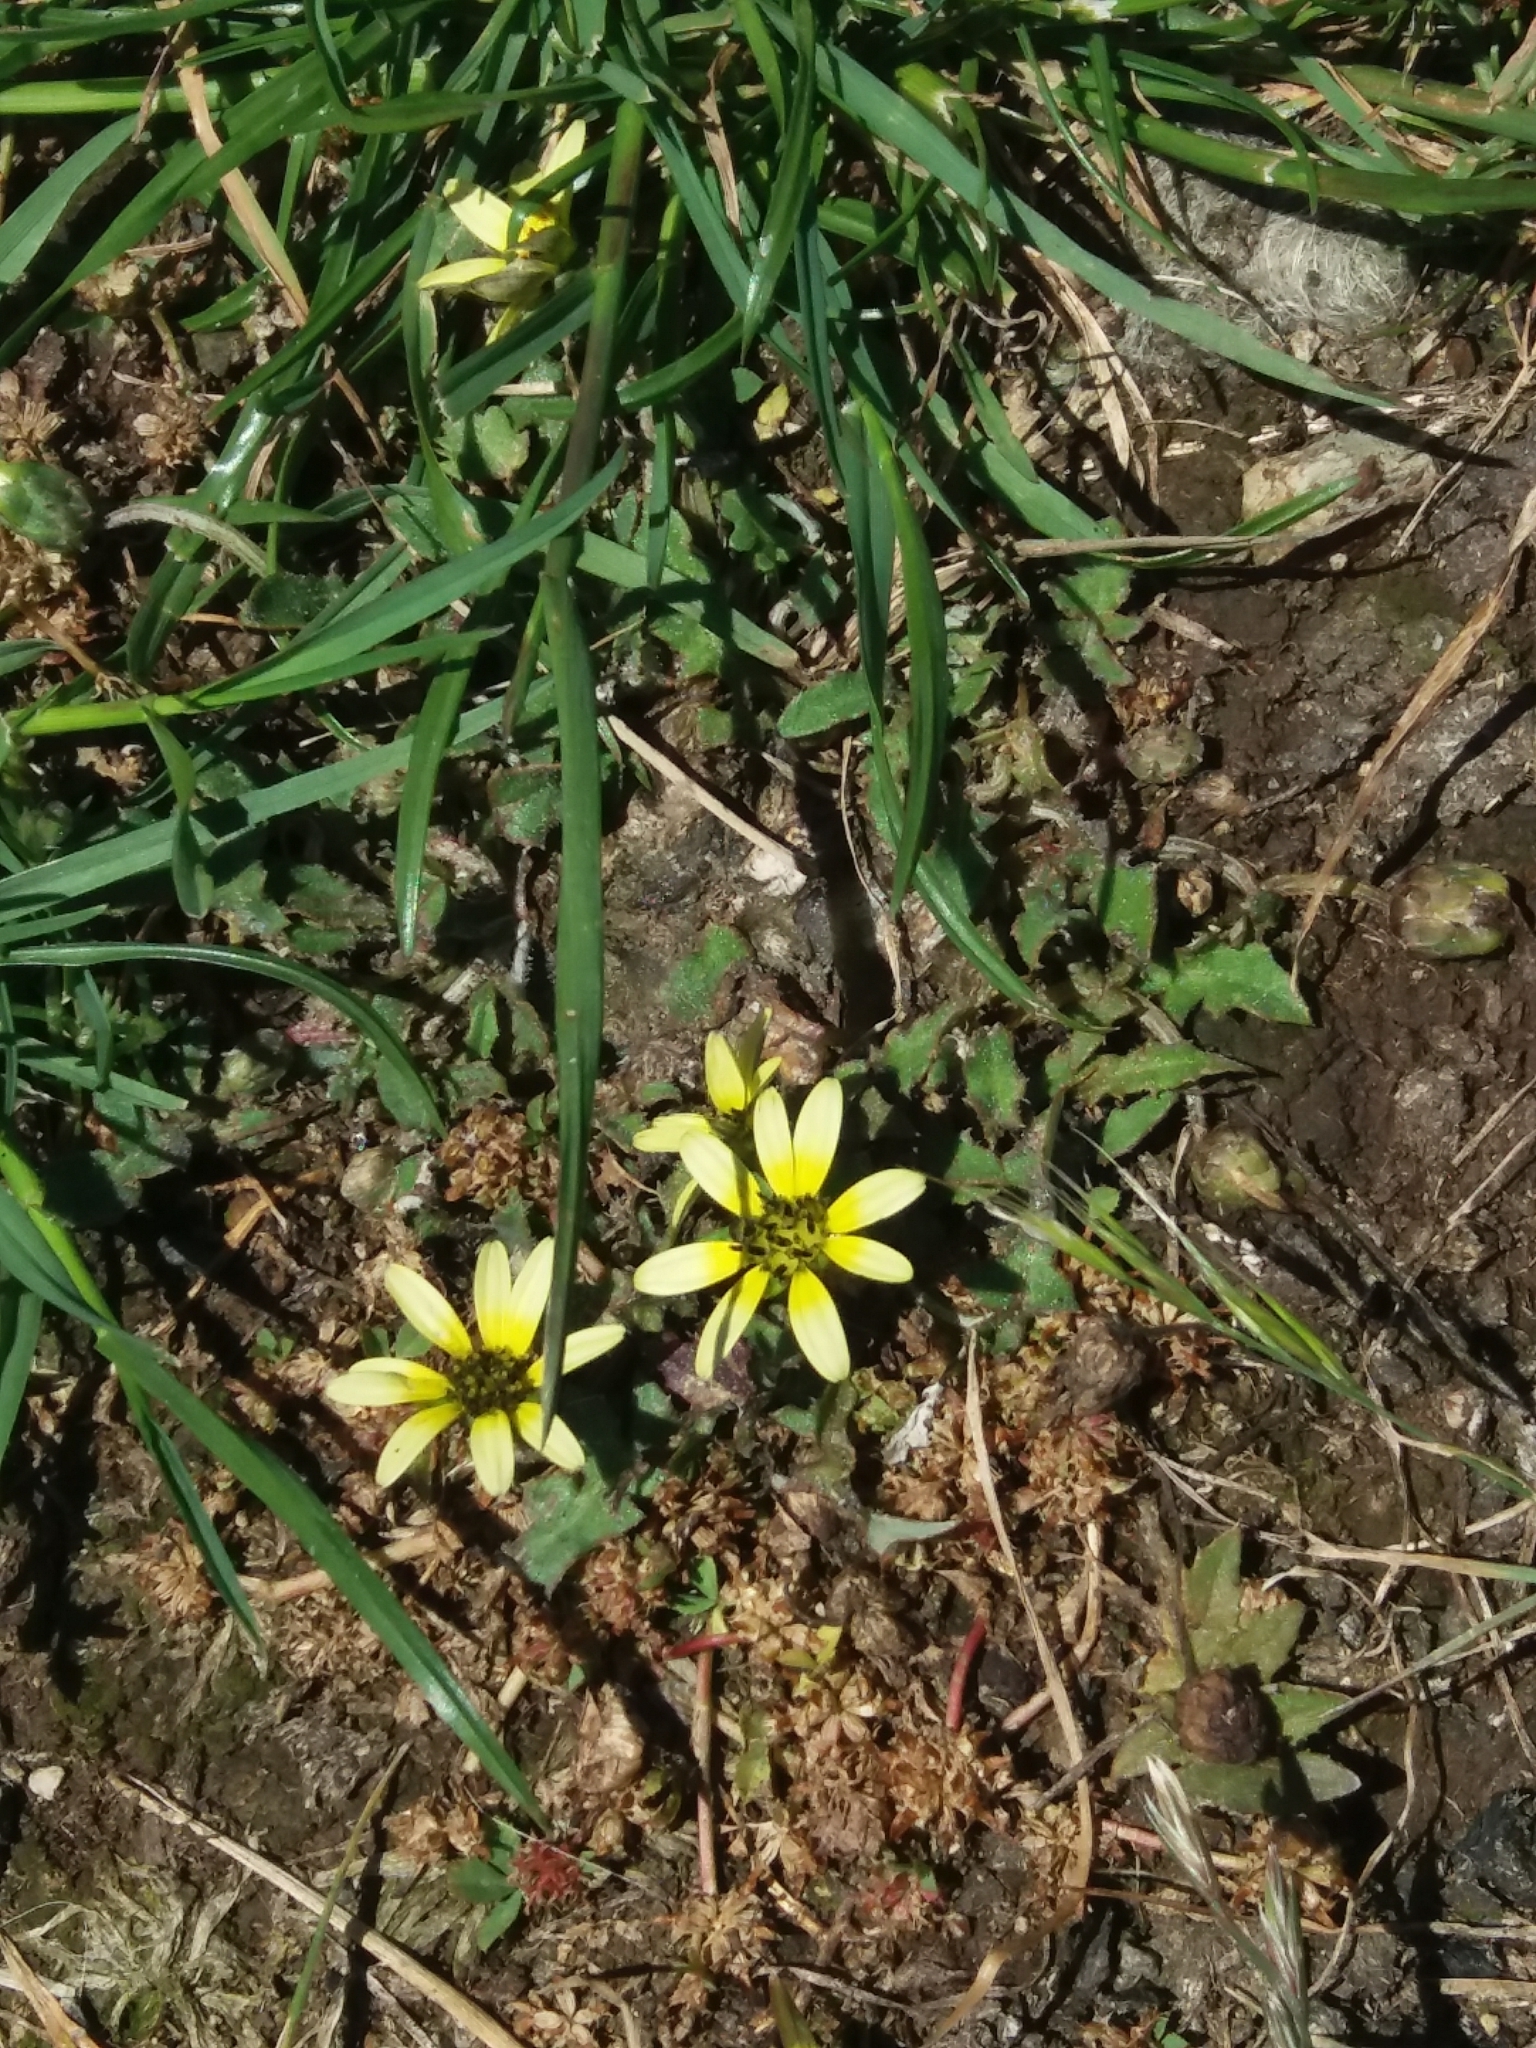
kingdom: Plantae
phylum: Tracheophyta
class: Magnoliopsida
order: Asterales
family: Asteraceae
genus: Arctotheca
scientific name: Arctotheca calendula
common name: Capeweed
